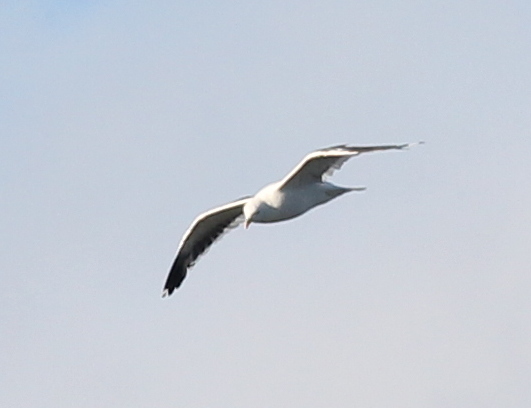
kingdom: Animalia
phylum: Chordata
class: Aves
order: Charadriiformes
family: Laridae
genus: Larus
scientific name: Larus dominicanus
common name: Kelp gull
